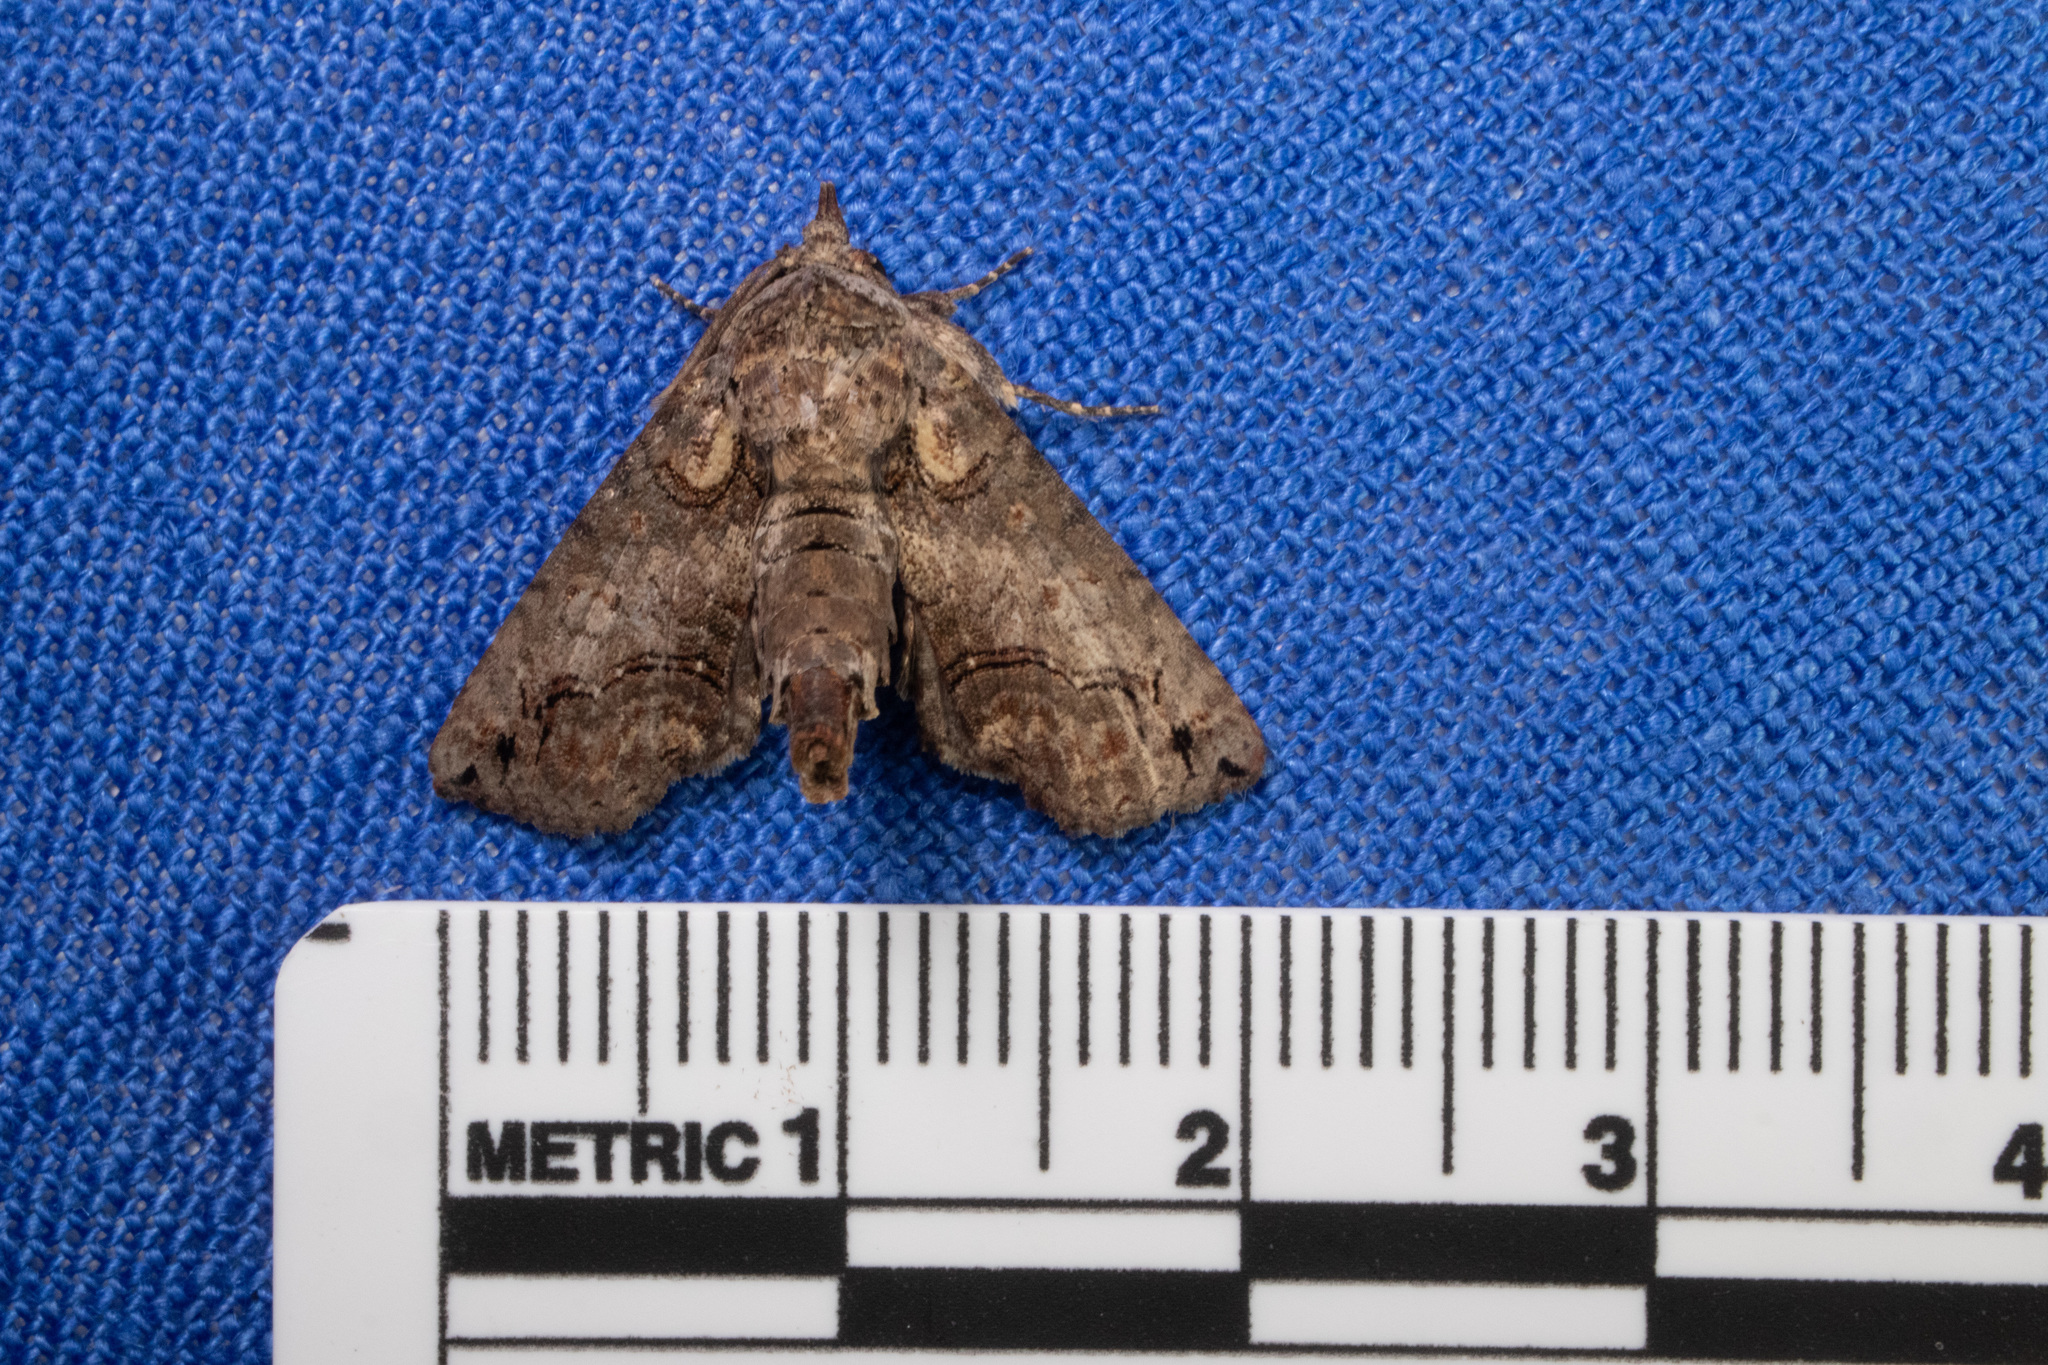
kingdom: Animalia
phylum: Arthropoda
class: Insecta
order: Lepidoptera
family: Euteliidae
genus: Paectes
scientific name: Paectes abrostoloides
